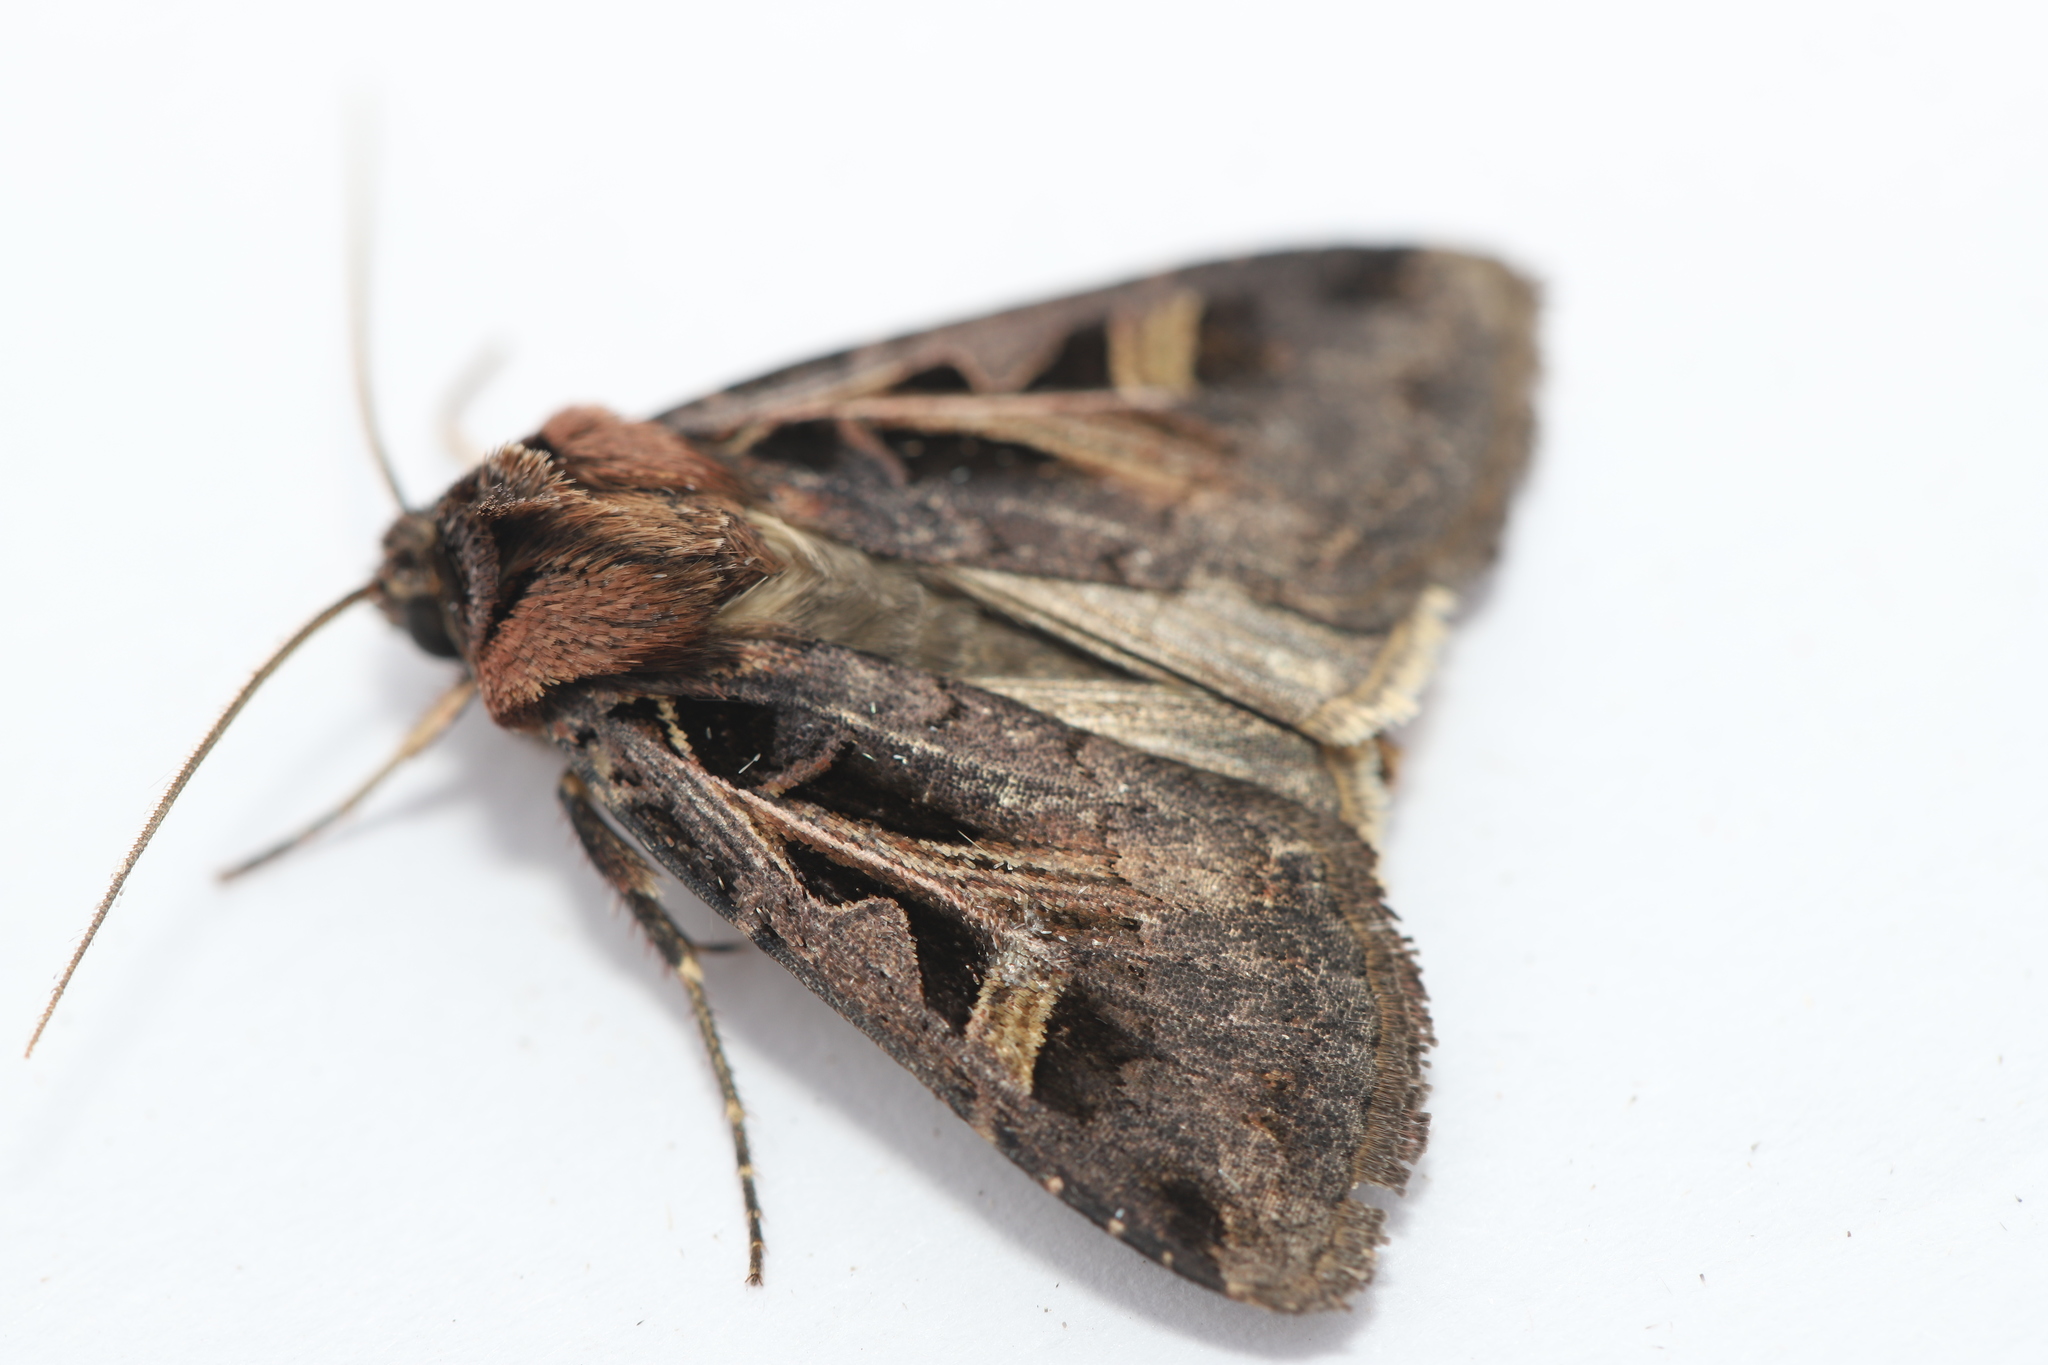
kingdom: Animalia
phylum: Arthropoda
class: Insecta
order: Lepidoptera
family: Noctuidae
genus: Feltia
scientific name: Feltia herilis
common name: Master's dart
